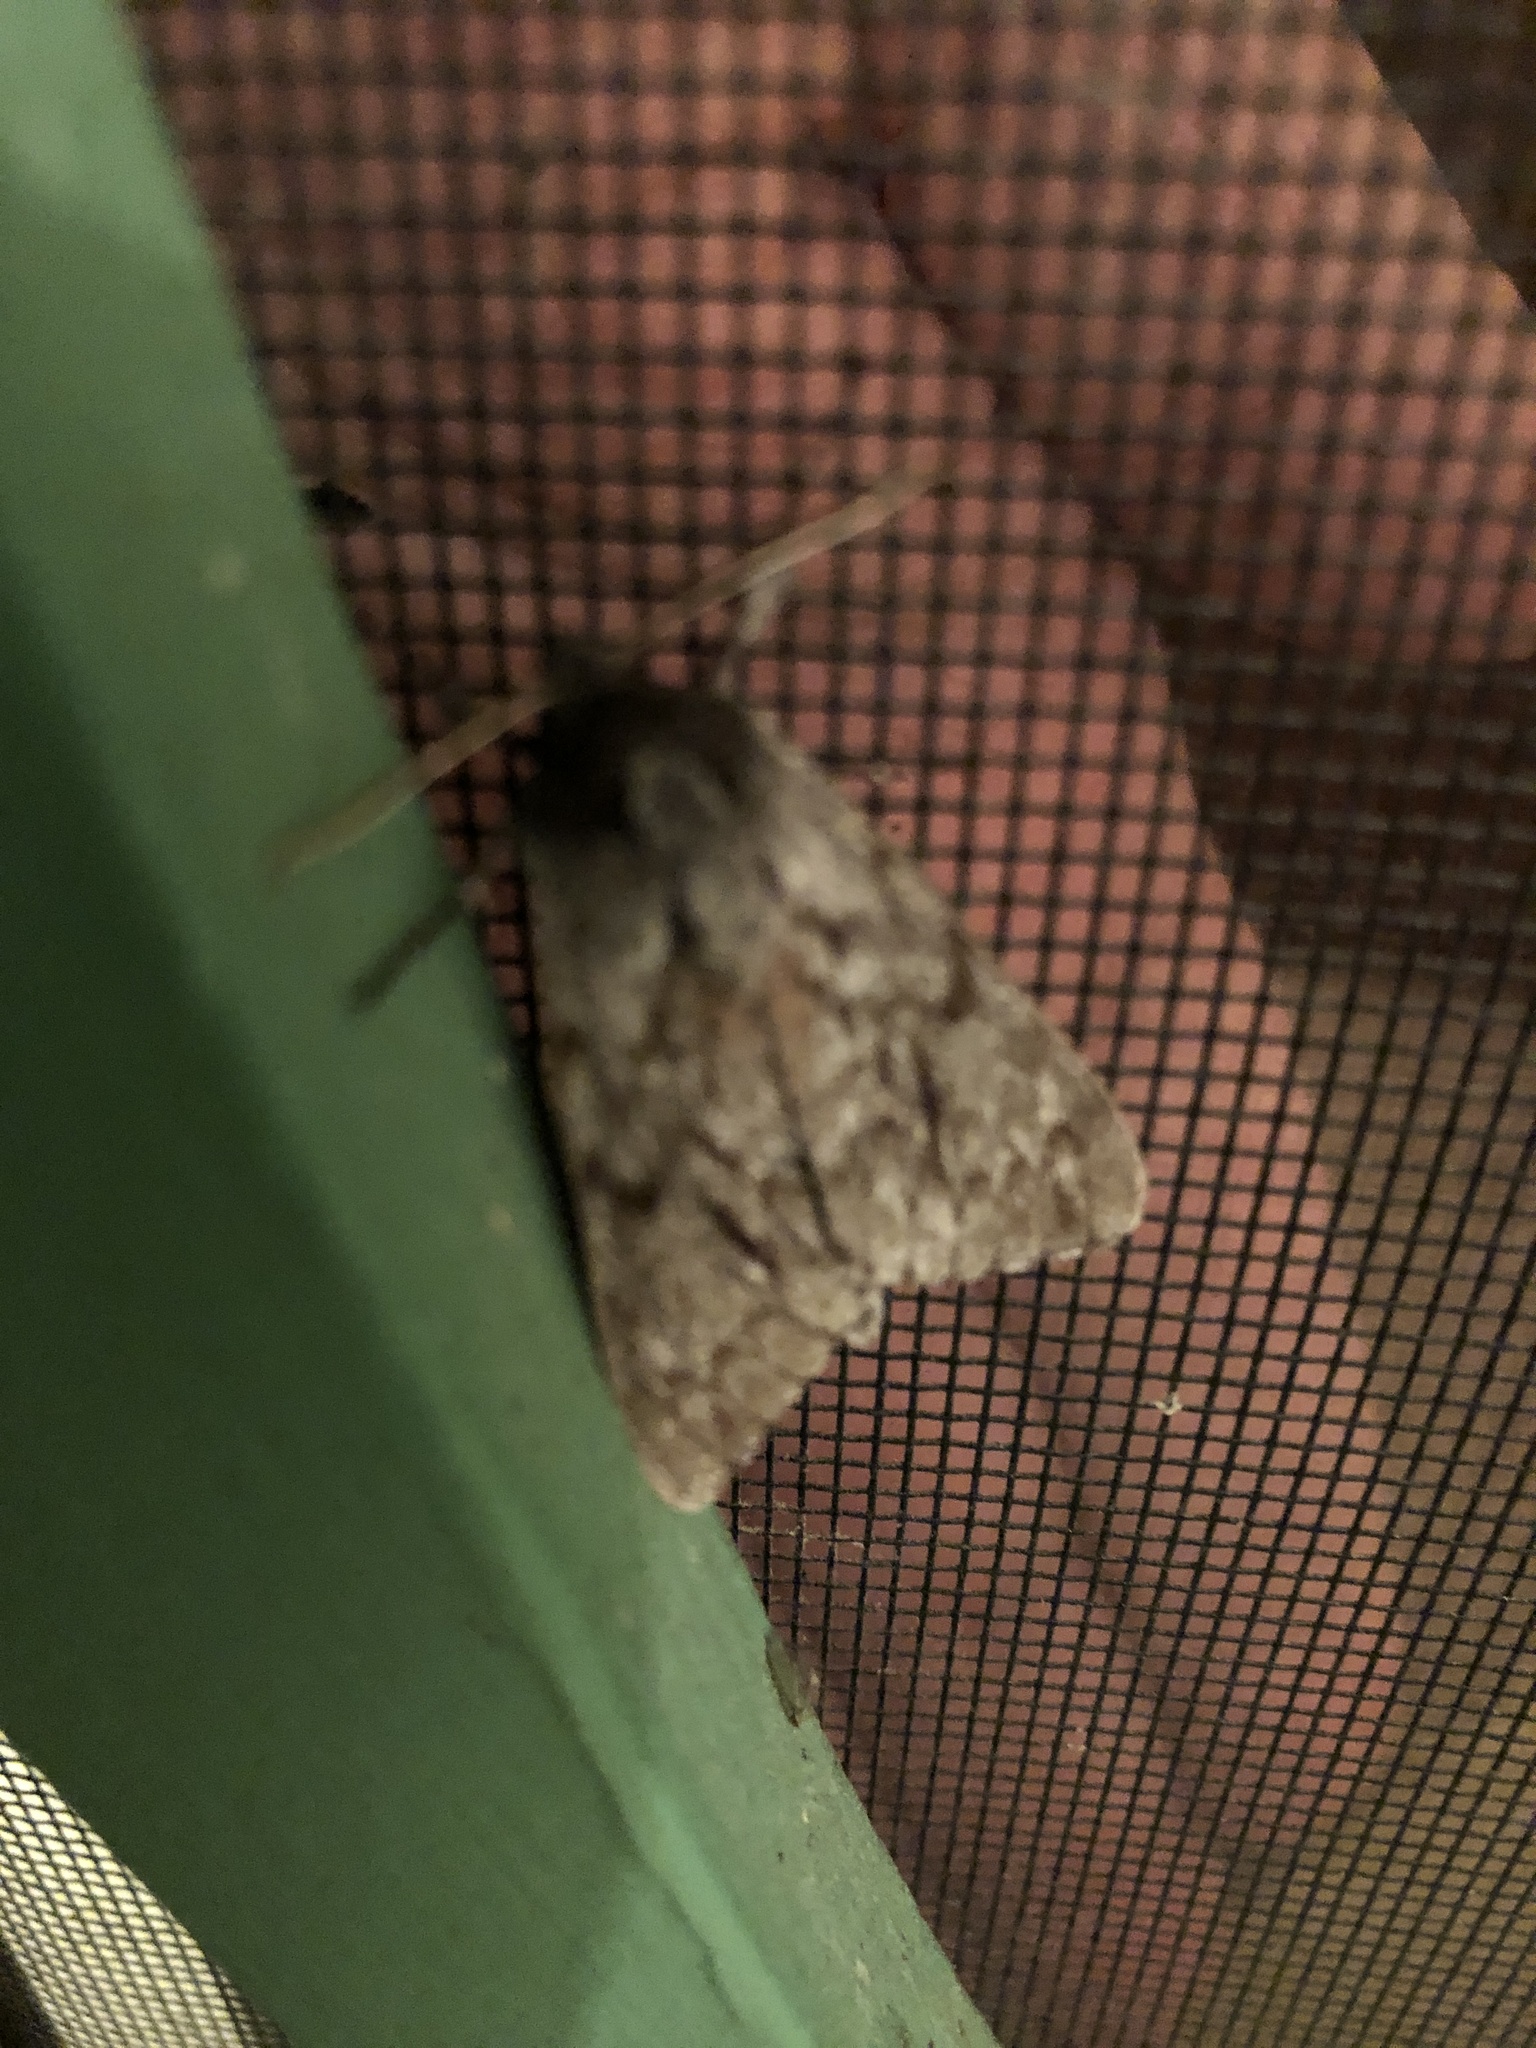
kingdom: Animalia
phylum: Arthropoda
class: Insecta
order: Lepidoptera
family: Sphingidae
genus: Lapara
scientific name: Lapara bombycoides
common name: Northern pine sphinx
